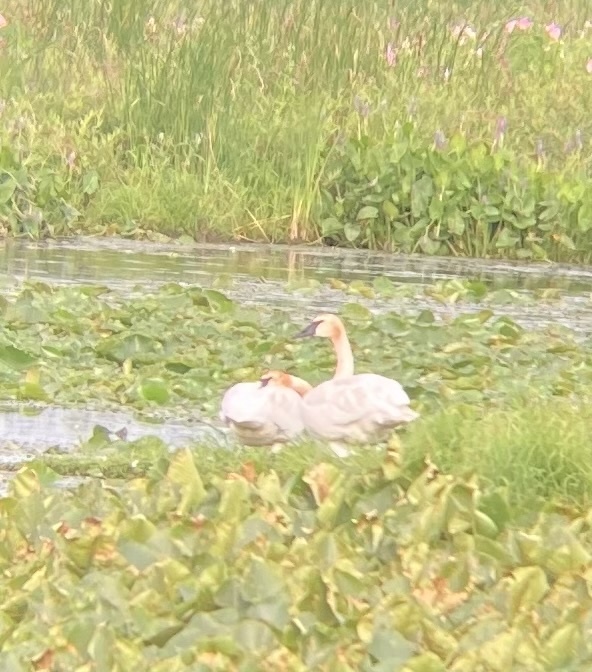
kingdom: Animalia
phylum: Chordata
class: Aves
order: Anseriformes
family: Anatidae
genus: Cygnus
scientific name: Cygnus buccinator
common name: Trumpeter swan
